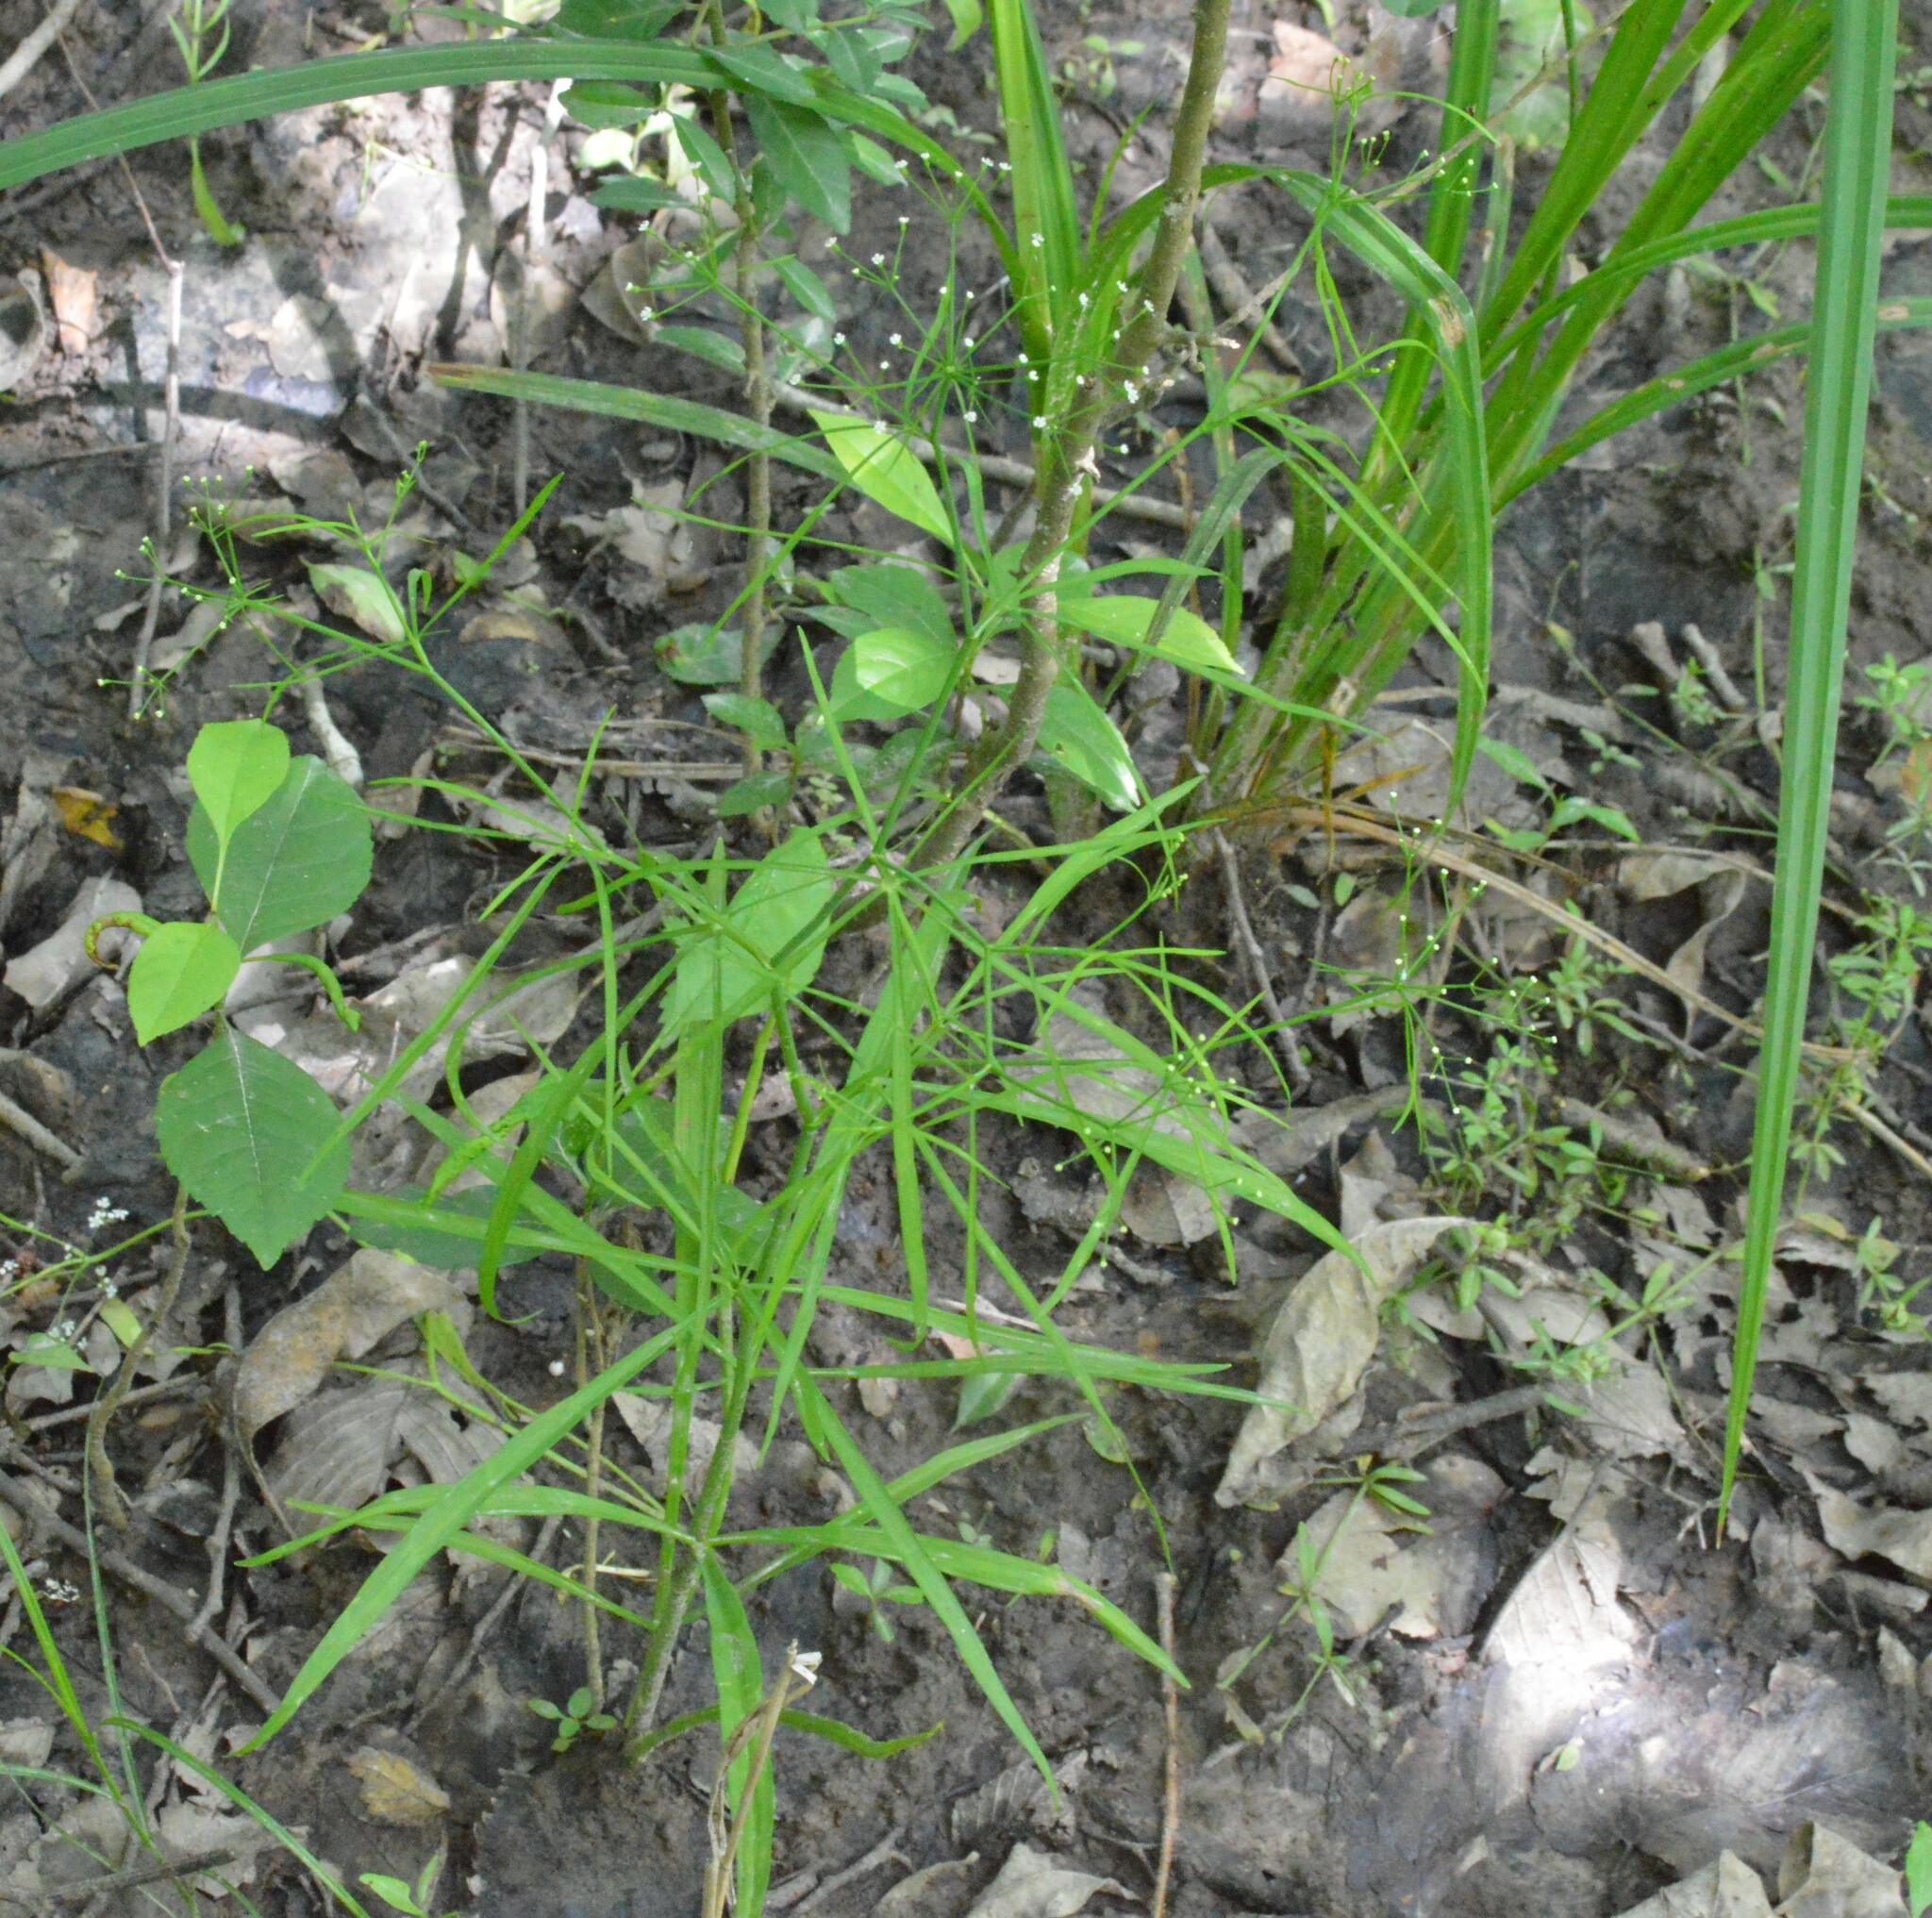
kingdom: Plantae
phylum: Tracheophyta
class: Magnoliopsida
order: Apiales
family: Apiaceae
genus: Cynosciadium
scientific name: Cynosciadium digitatum
